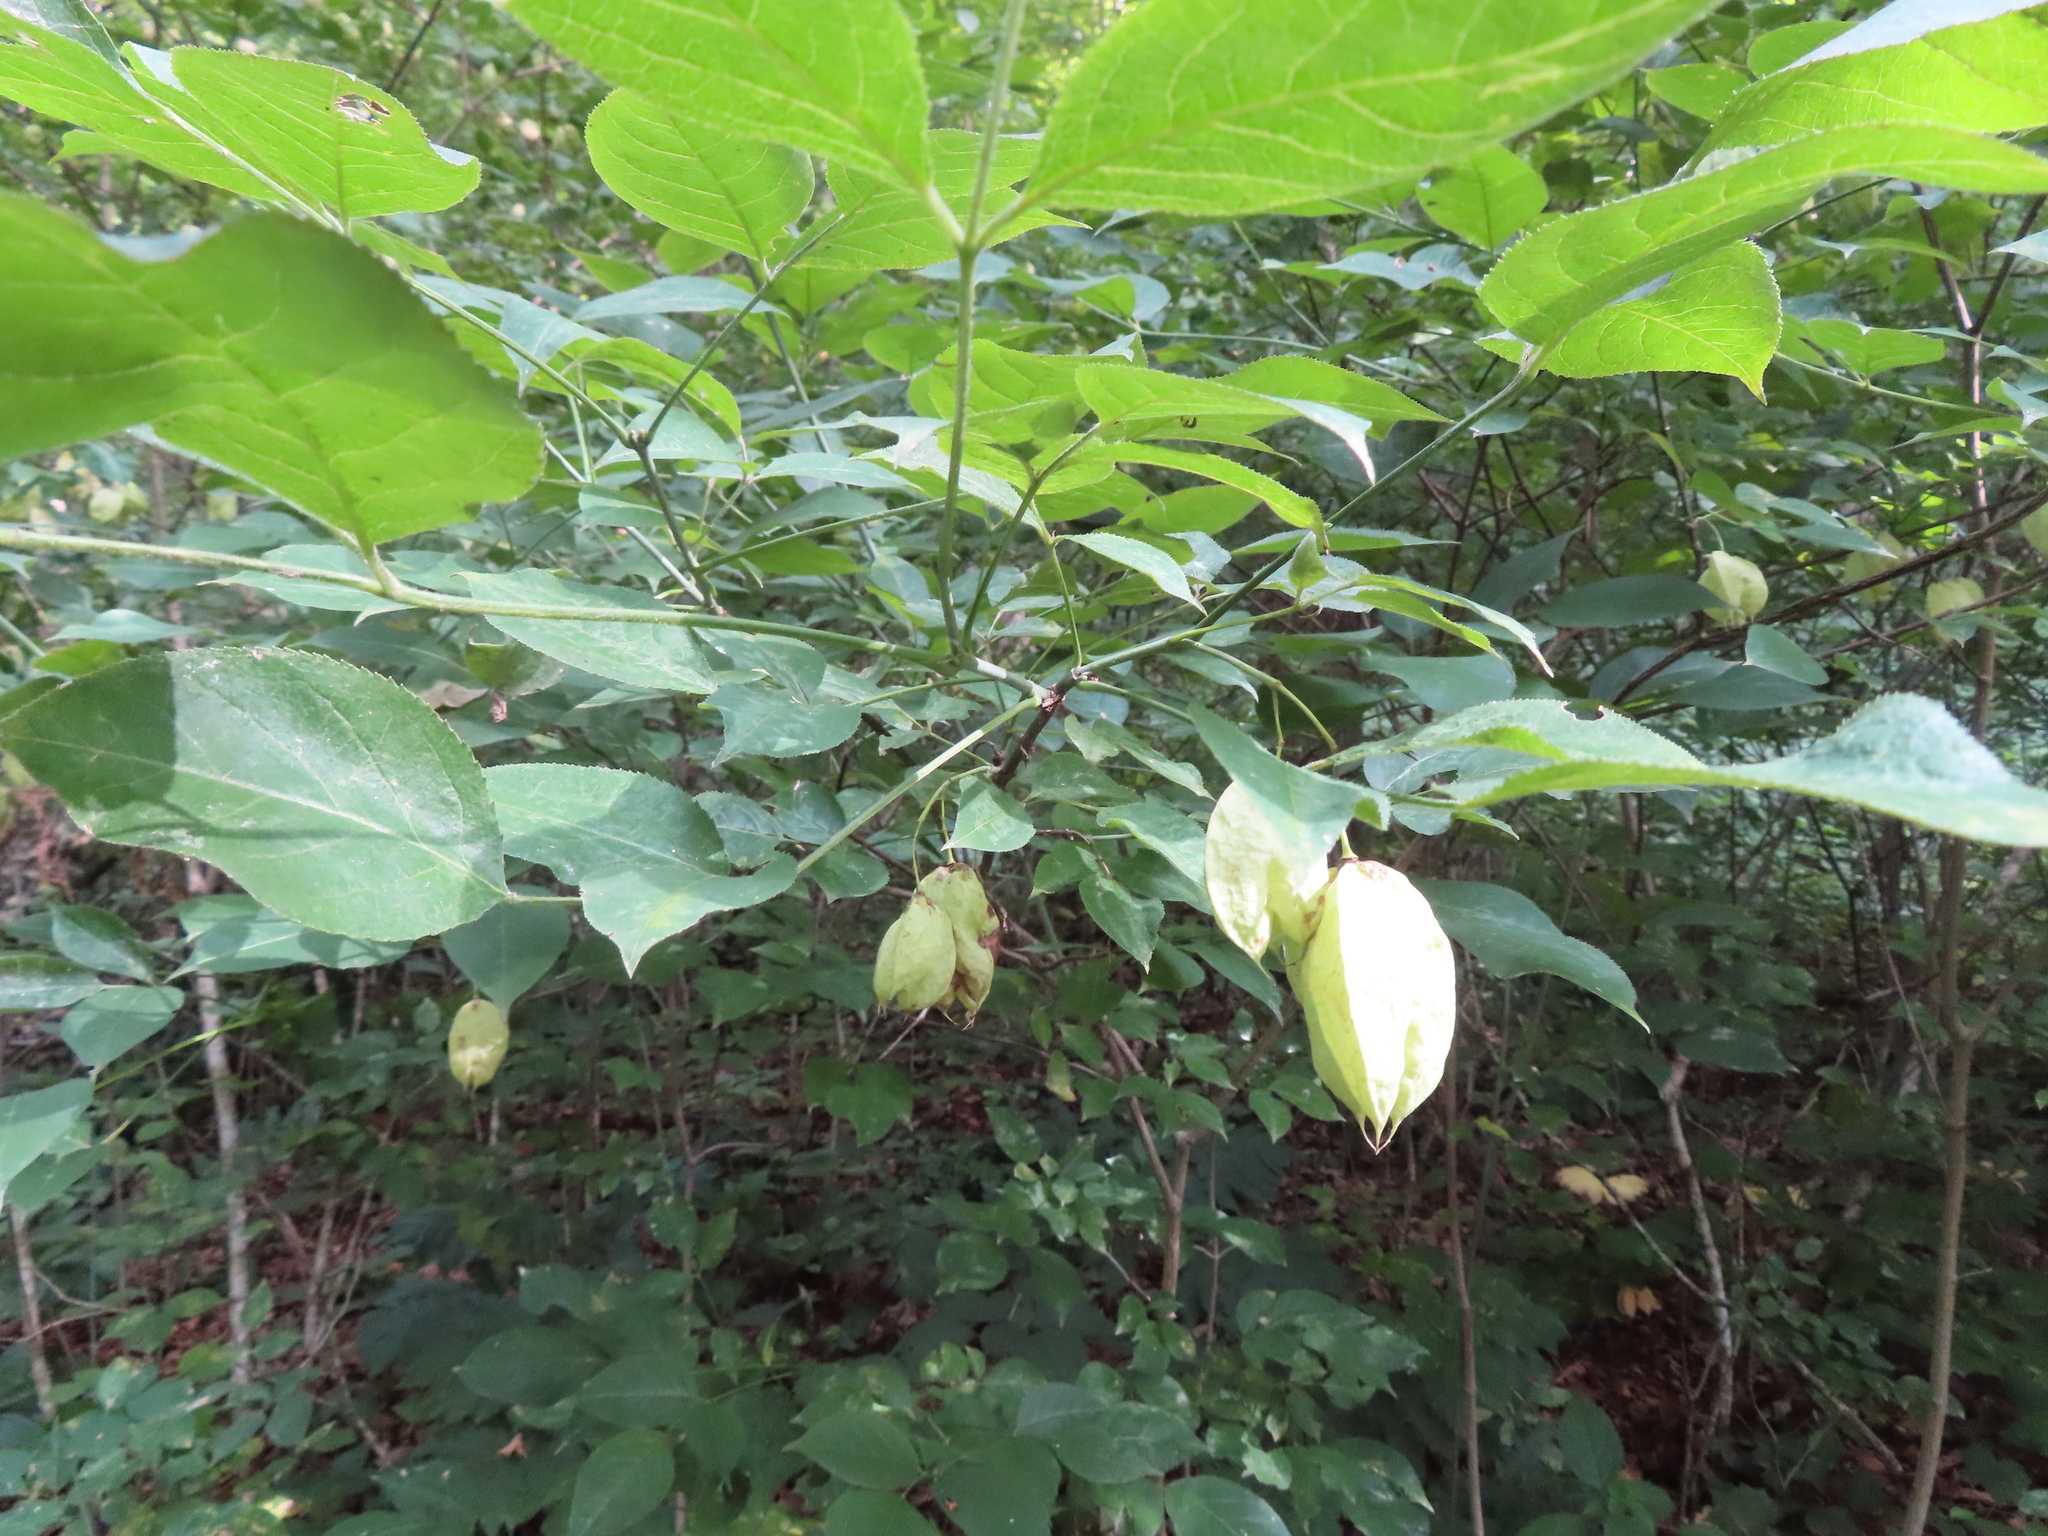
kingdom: Plantae
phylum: Tracheophyta
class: Magnoliopsida
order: Crossosomatales
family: Staphyleaceae
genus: Staphylea
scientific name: Staphylea trifolia
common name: American bladdernut
